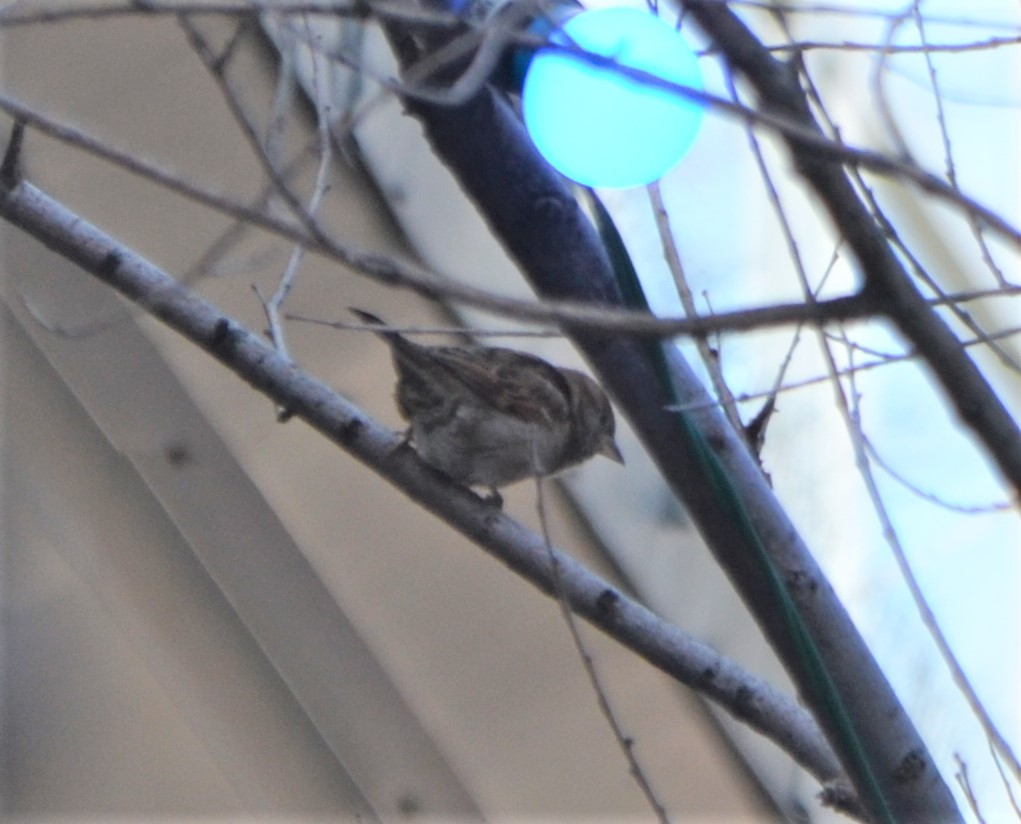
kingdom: Animalia
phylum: Chordata
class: Aves
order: Passeriformes
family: Passeridae
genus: Passer
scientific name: Passer domesticus
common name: House sparrow
